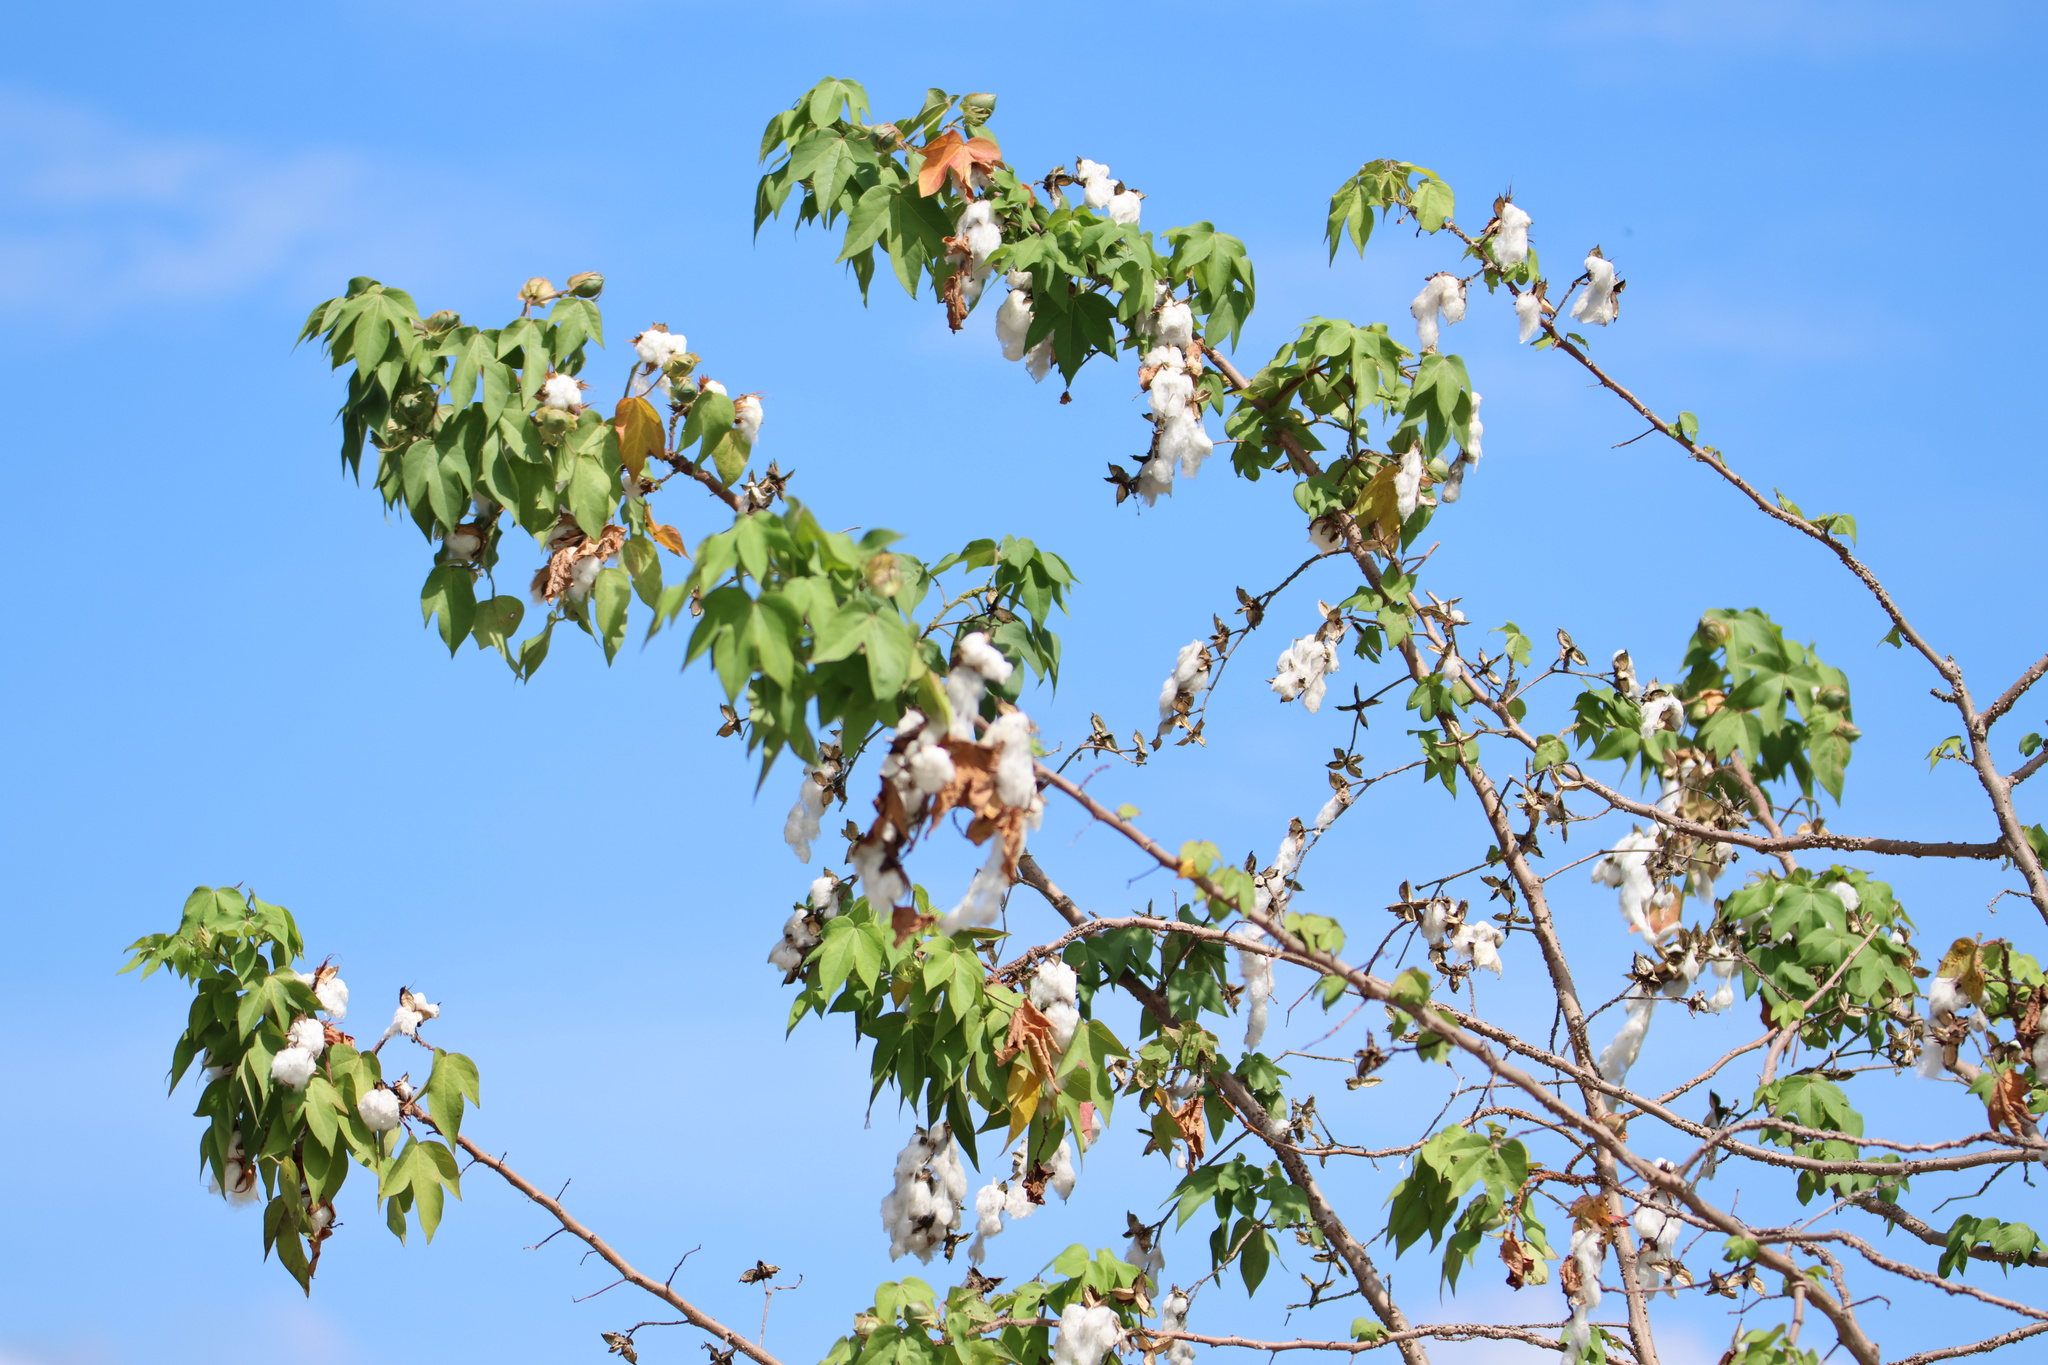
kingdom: Plantae
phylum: Tracheophyta
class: Magnoliopsida
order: Malvales
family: Malvaceae
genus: Gossypium
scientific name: Gossypium hirsutum
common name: Cotton
